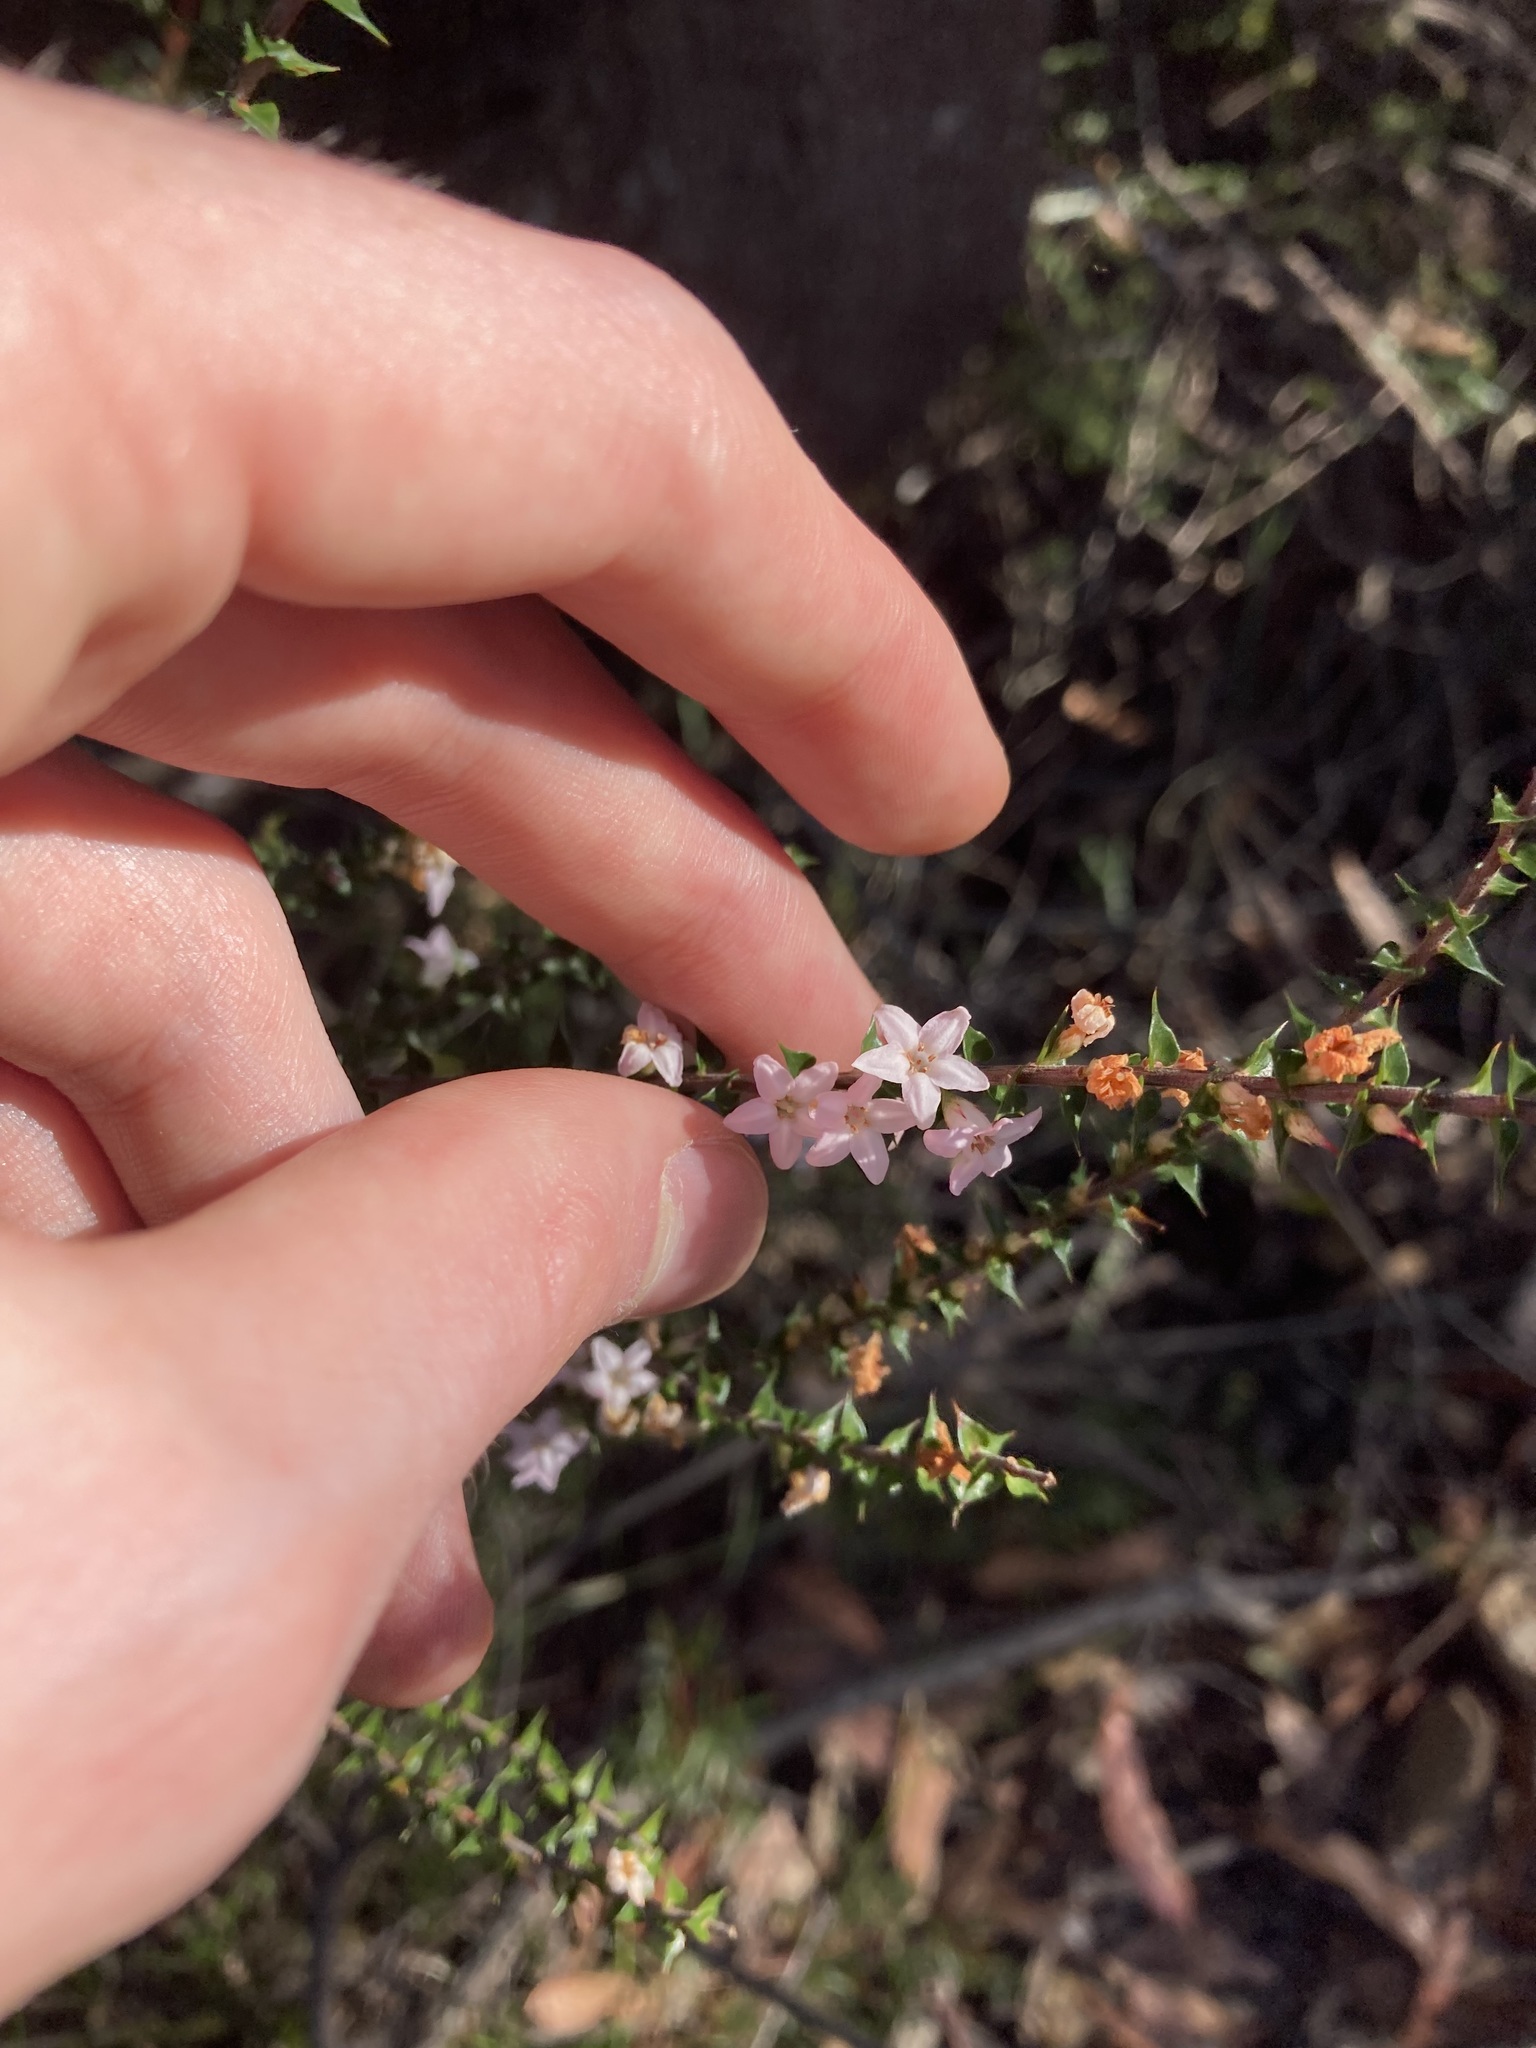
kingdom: Plantae
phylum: Tracheophyta
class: Magnoliopsida
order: Ericales
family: Ericaceae
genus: Epacris
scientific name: Epacris pulchella
